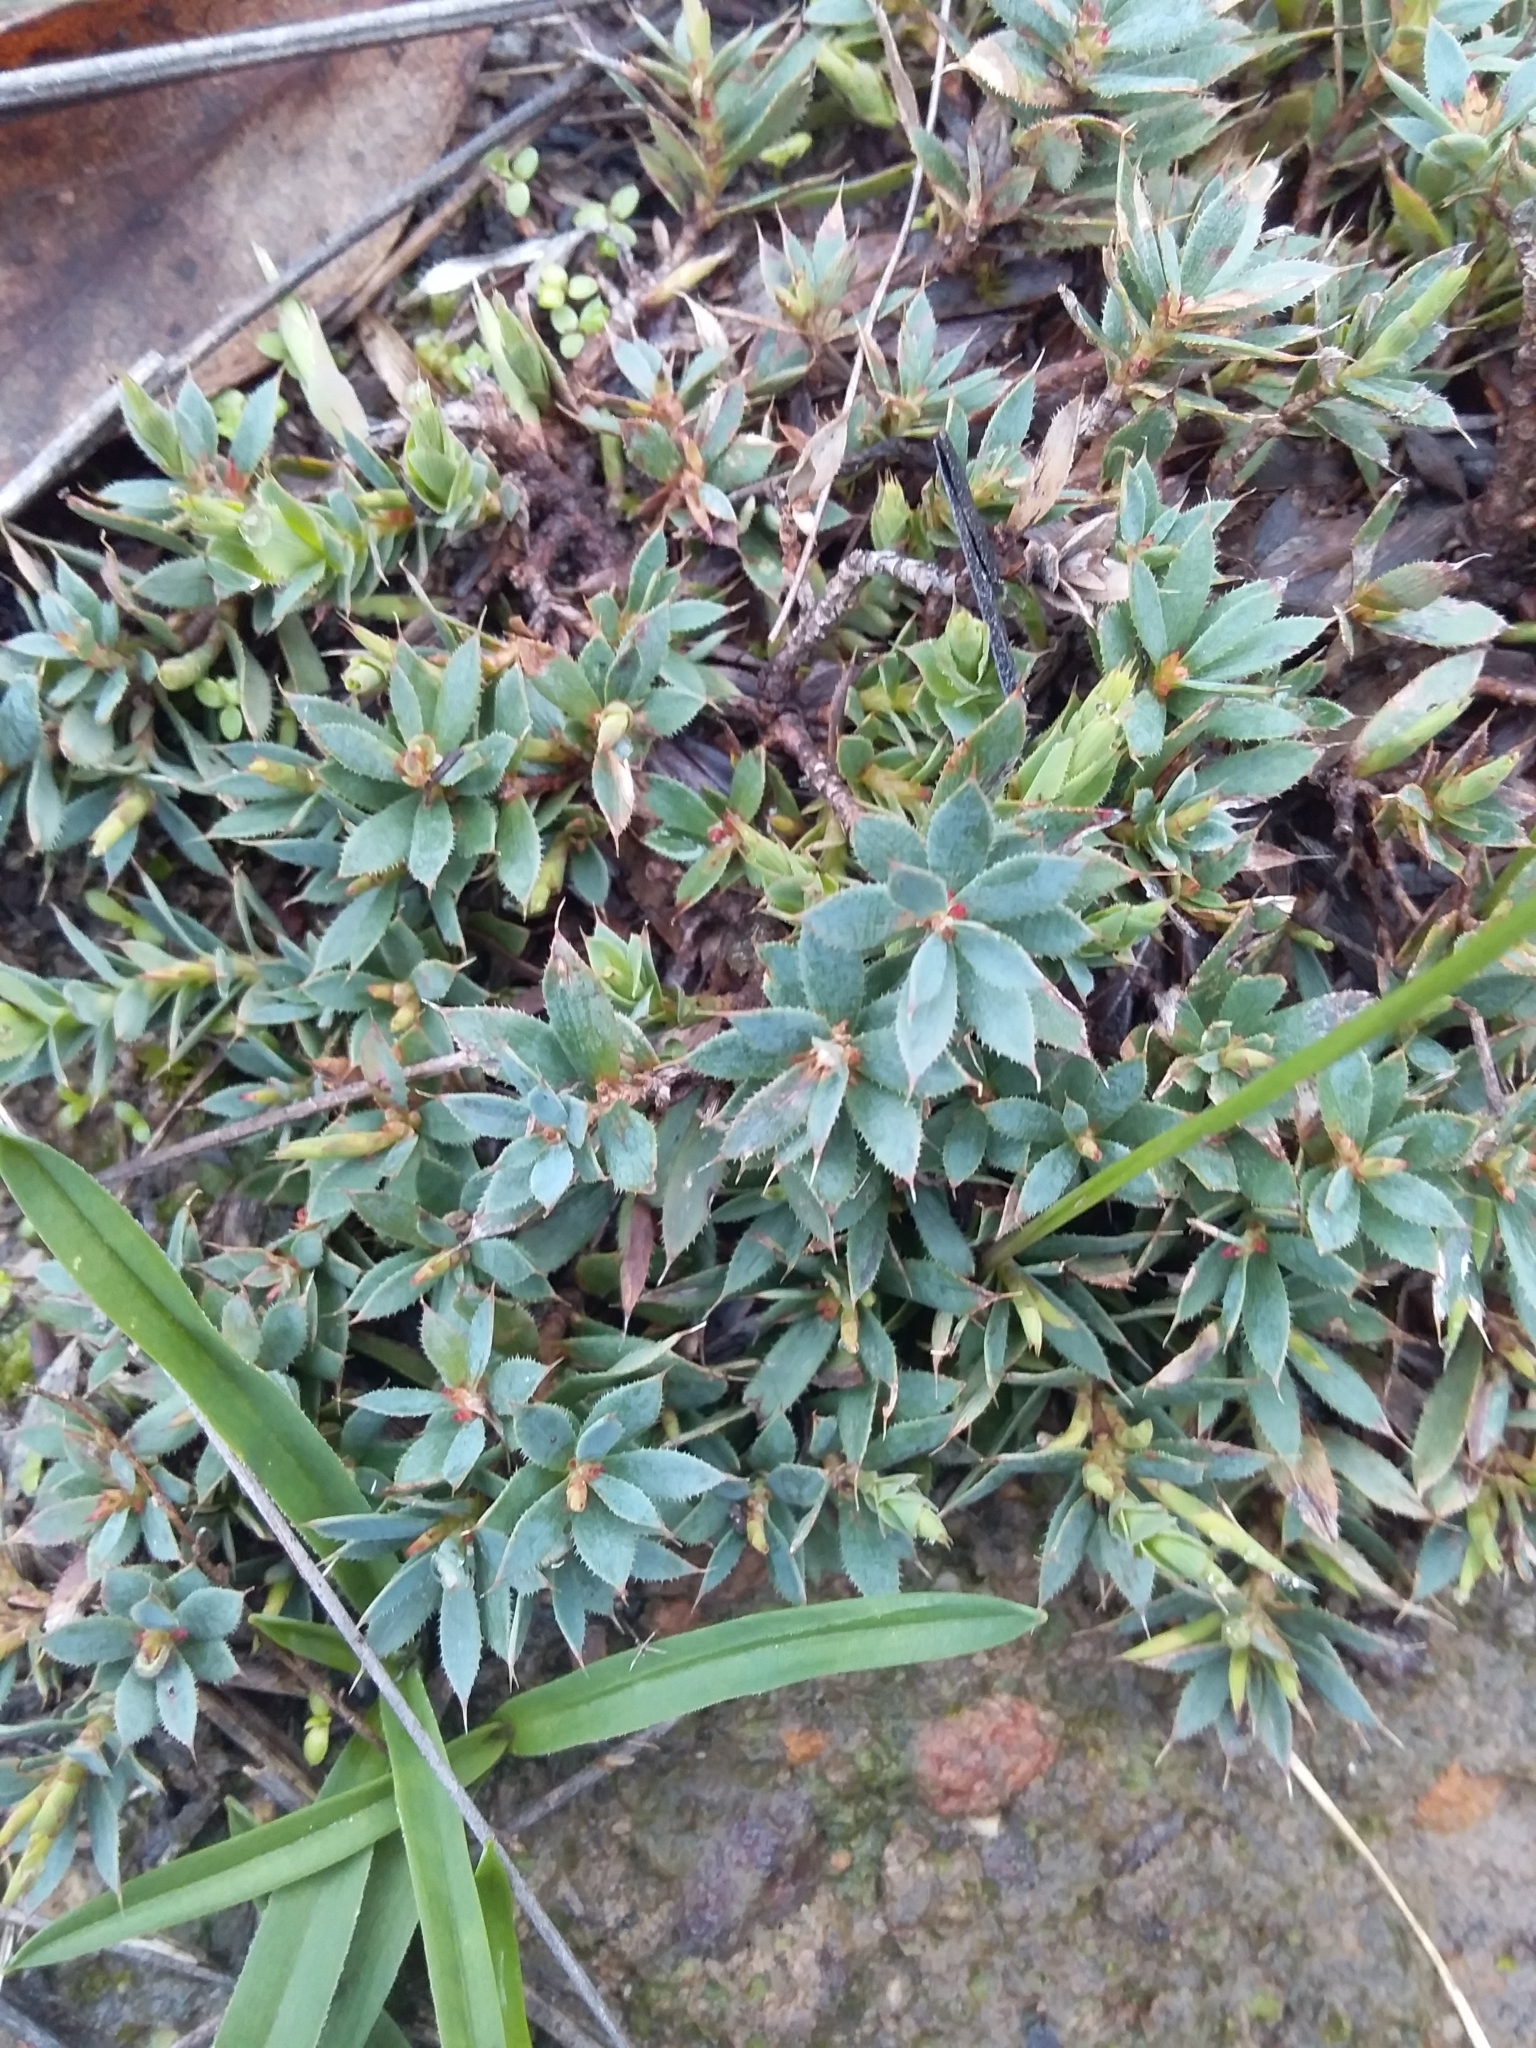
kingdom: Plantae
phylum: Tracheophyta
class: Magnoliopsida
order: Ericales
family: Ericaceae
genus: Styphelia
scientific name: Styphelia humifusa
